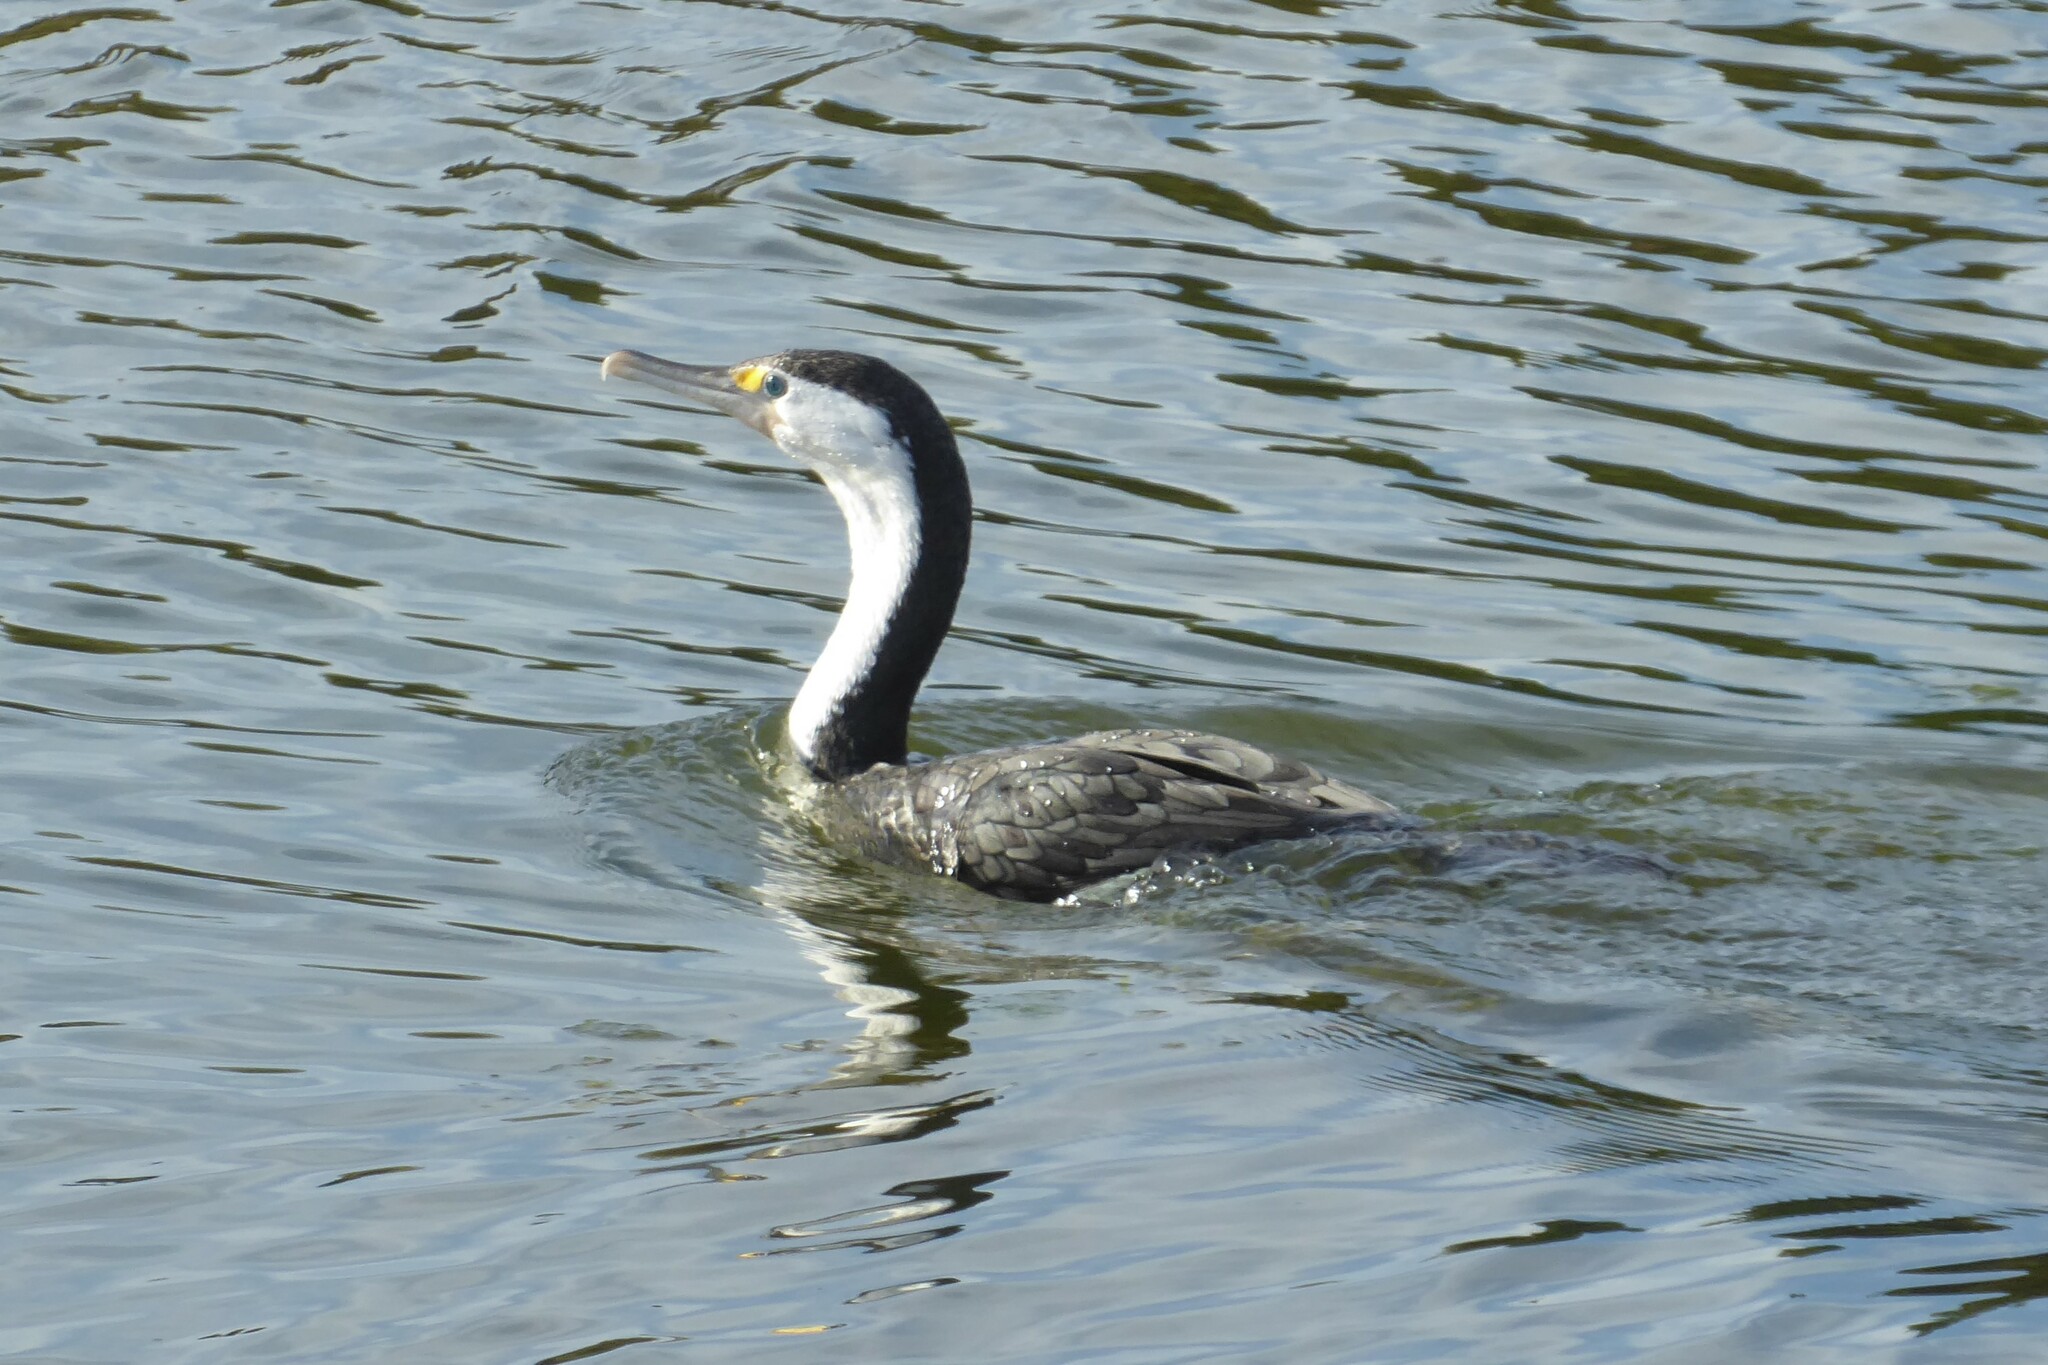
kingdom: Animalia
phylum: Chordata
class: Aves
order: Suliformes
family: Phalacrocoracidae
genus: Phalacrocorax
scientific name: Phalacrocorax varius
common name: Pied cormorant
